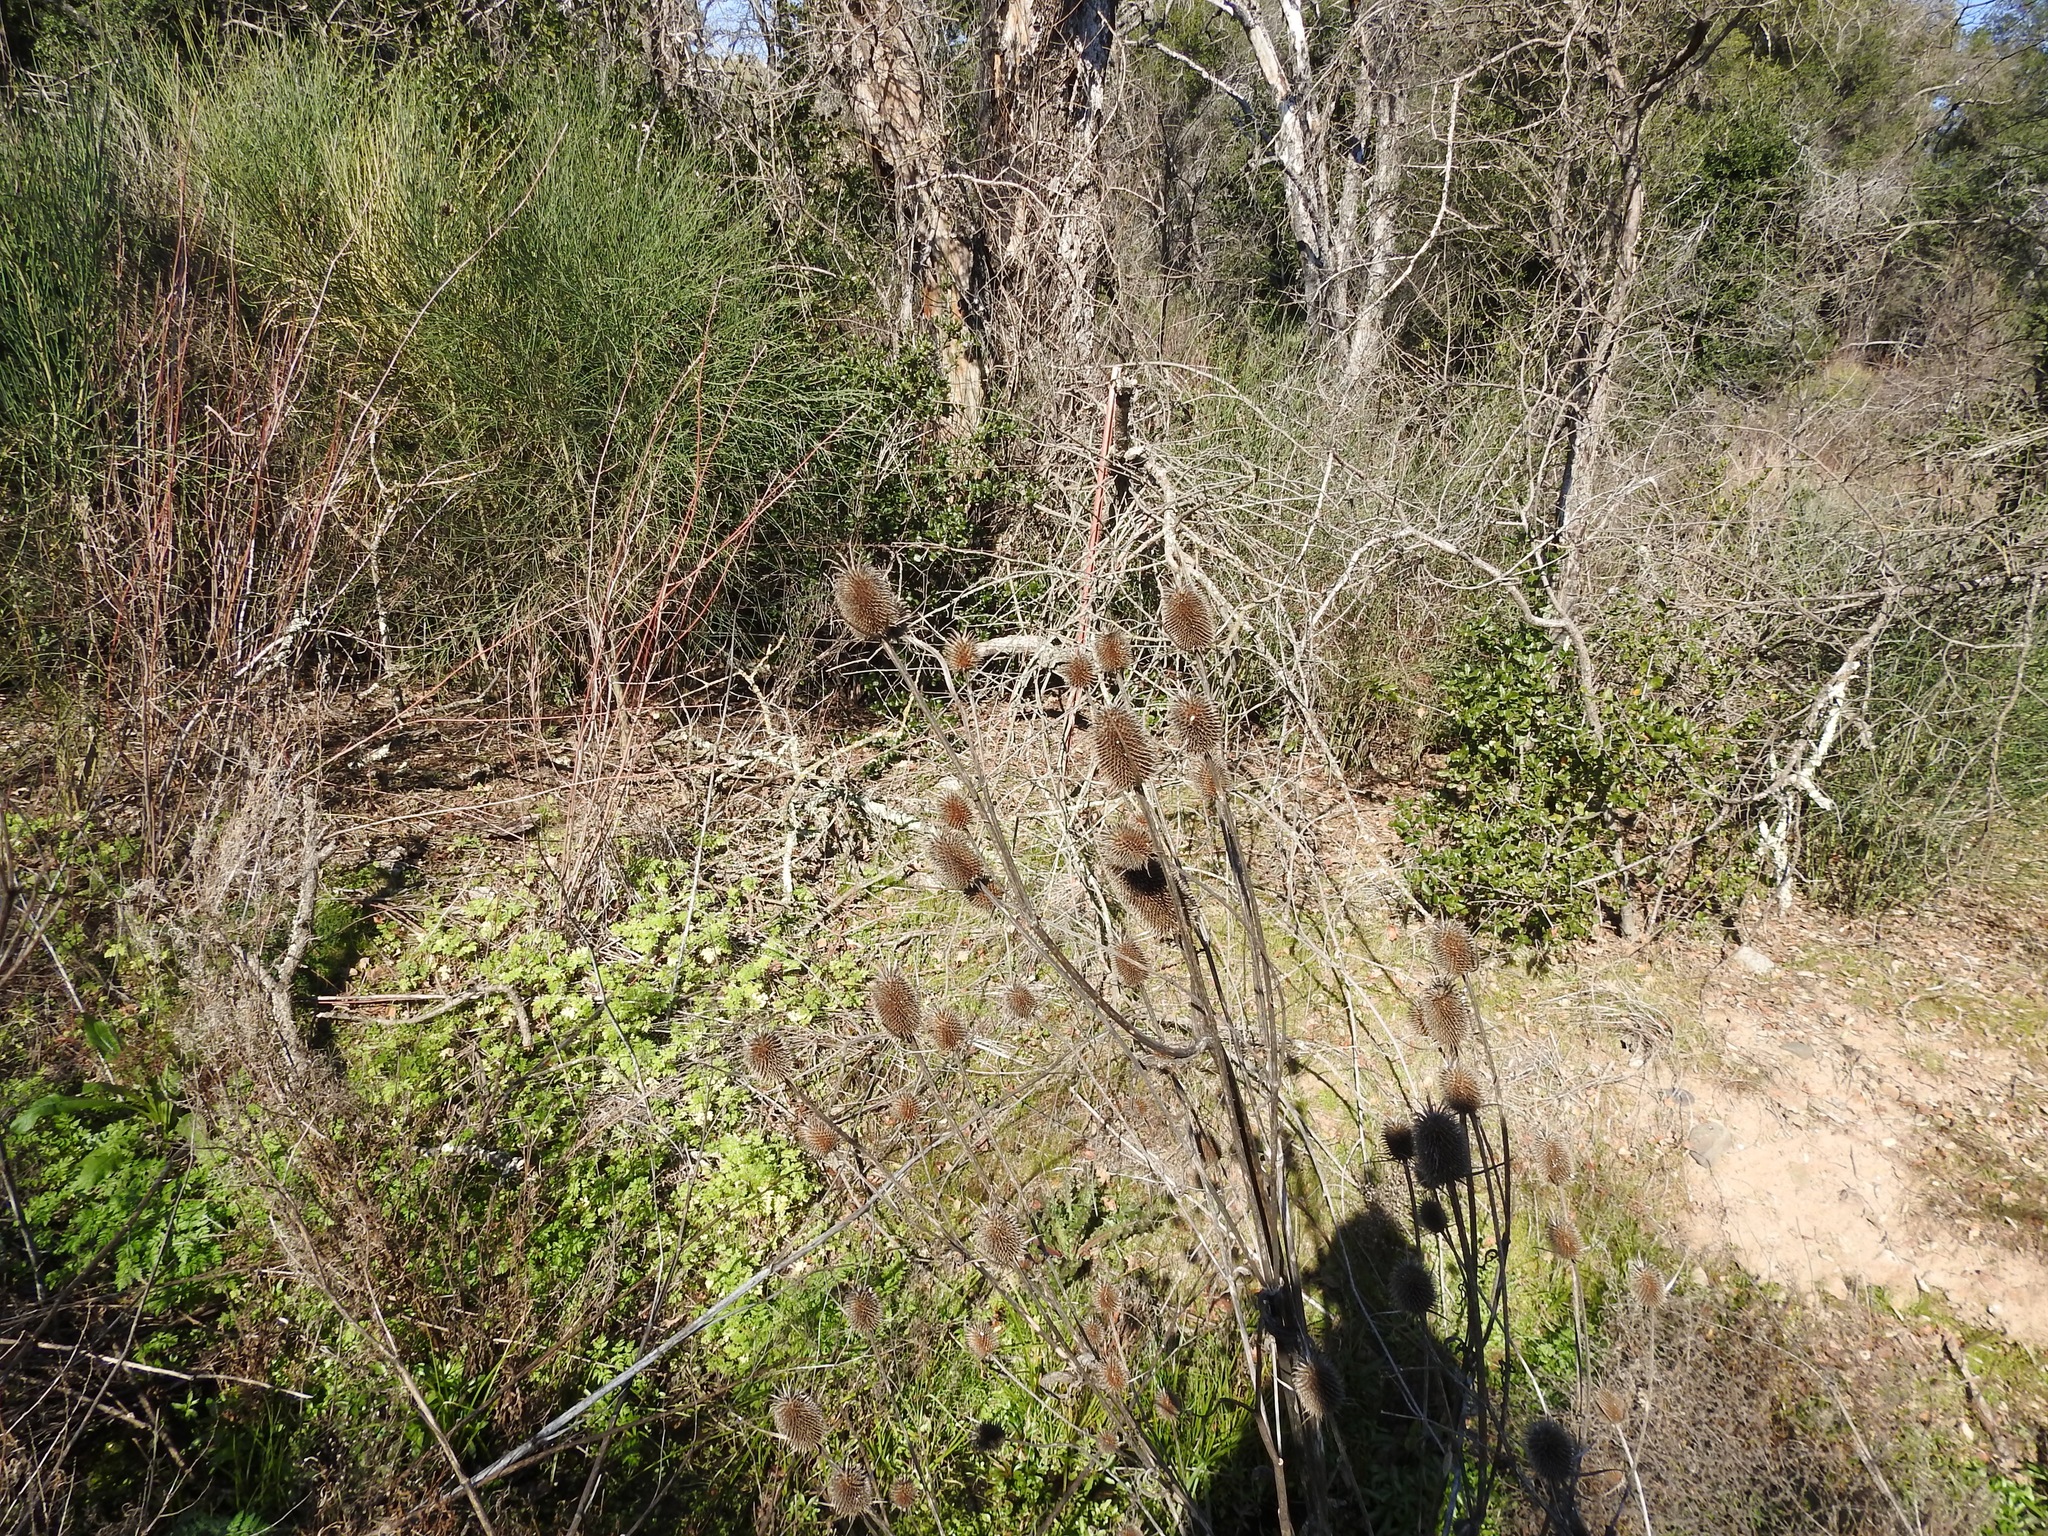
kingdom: Plantae
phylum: Tracheophyta
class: Magnoliopsida
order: Dipsacales
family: Caprifoliaceae
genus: Dipsacus
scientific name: Dipsacus sativus
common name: Fuller's teasel
